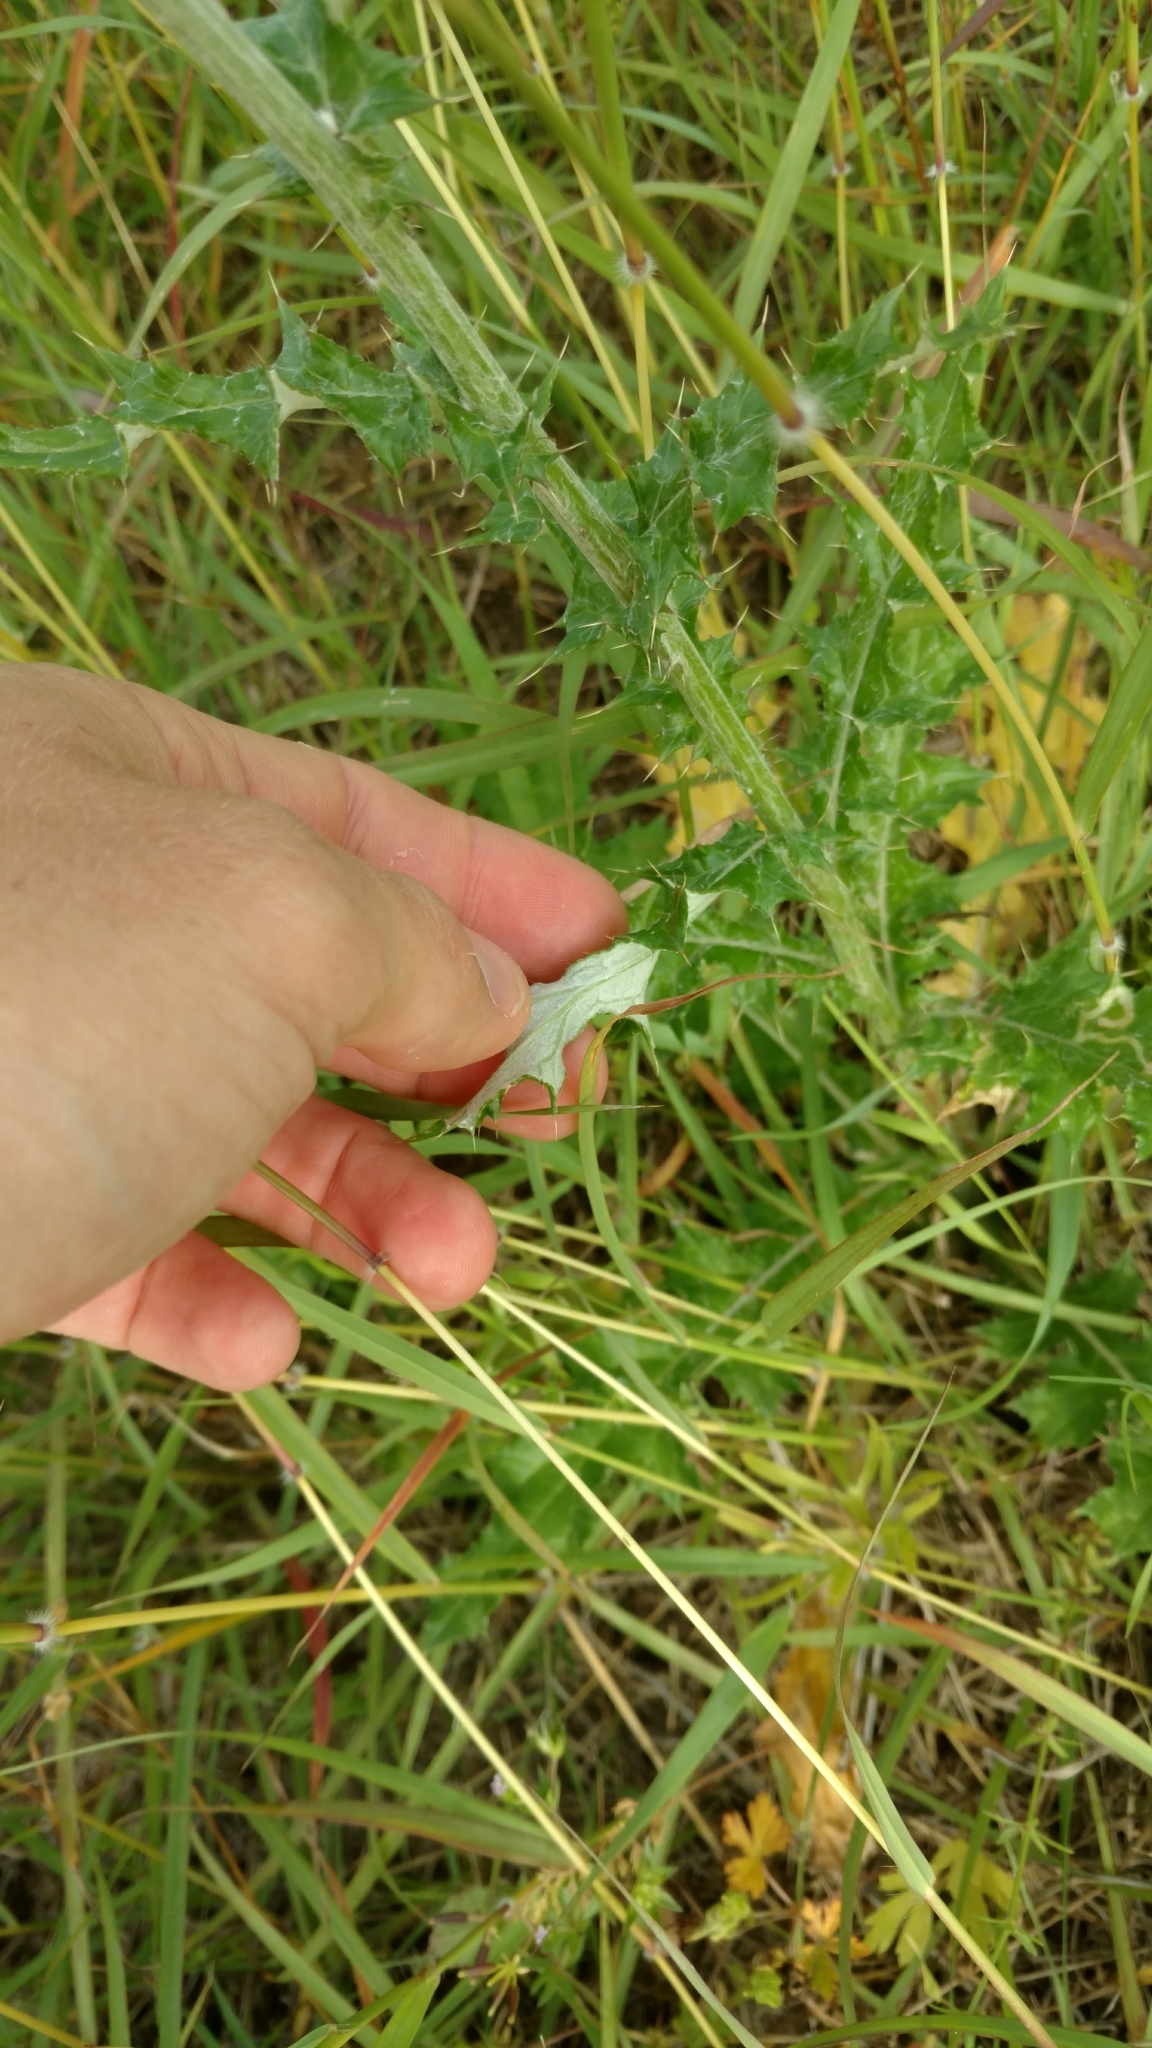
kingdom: Plantae
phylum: Tracheophyta
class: Magnoliopsida
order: Asterales
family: Asteraceae
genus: Cirsium
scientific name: Cirsium texanum
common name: Texas purple thistle
